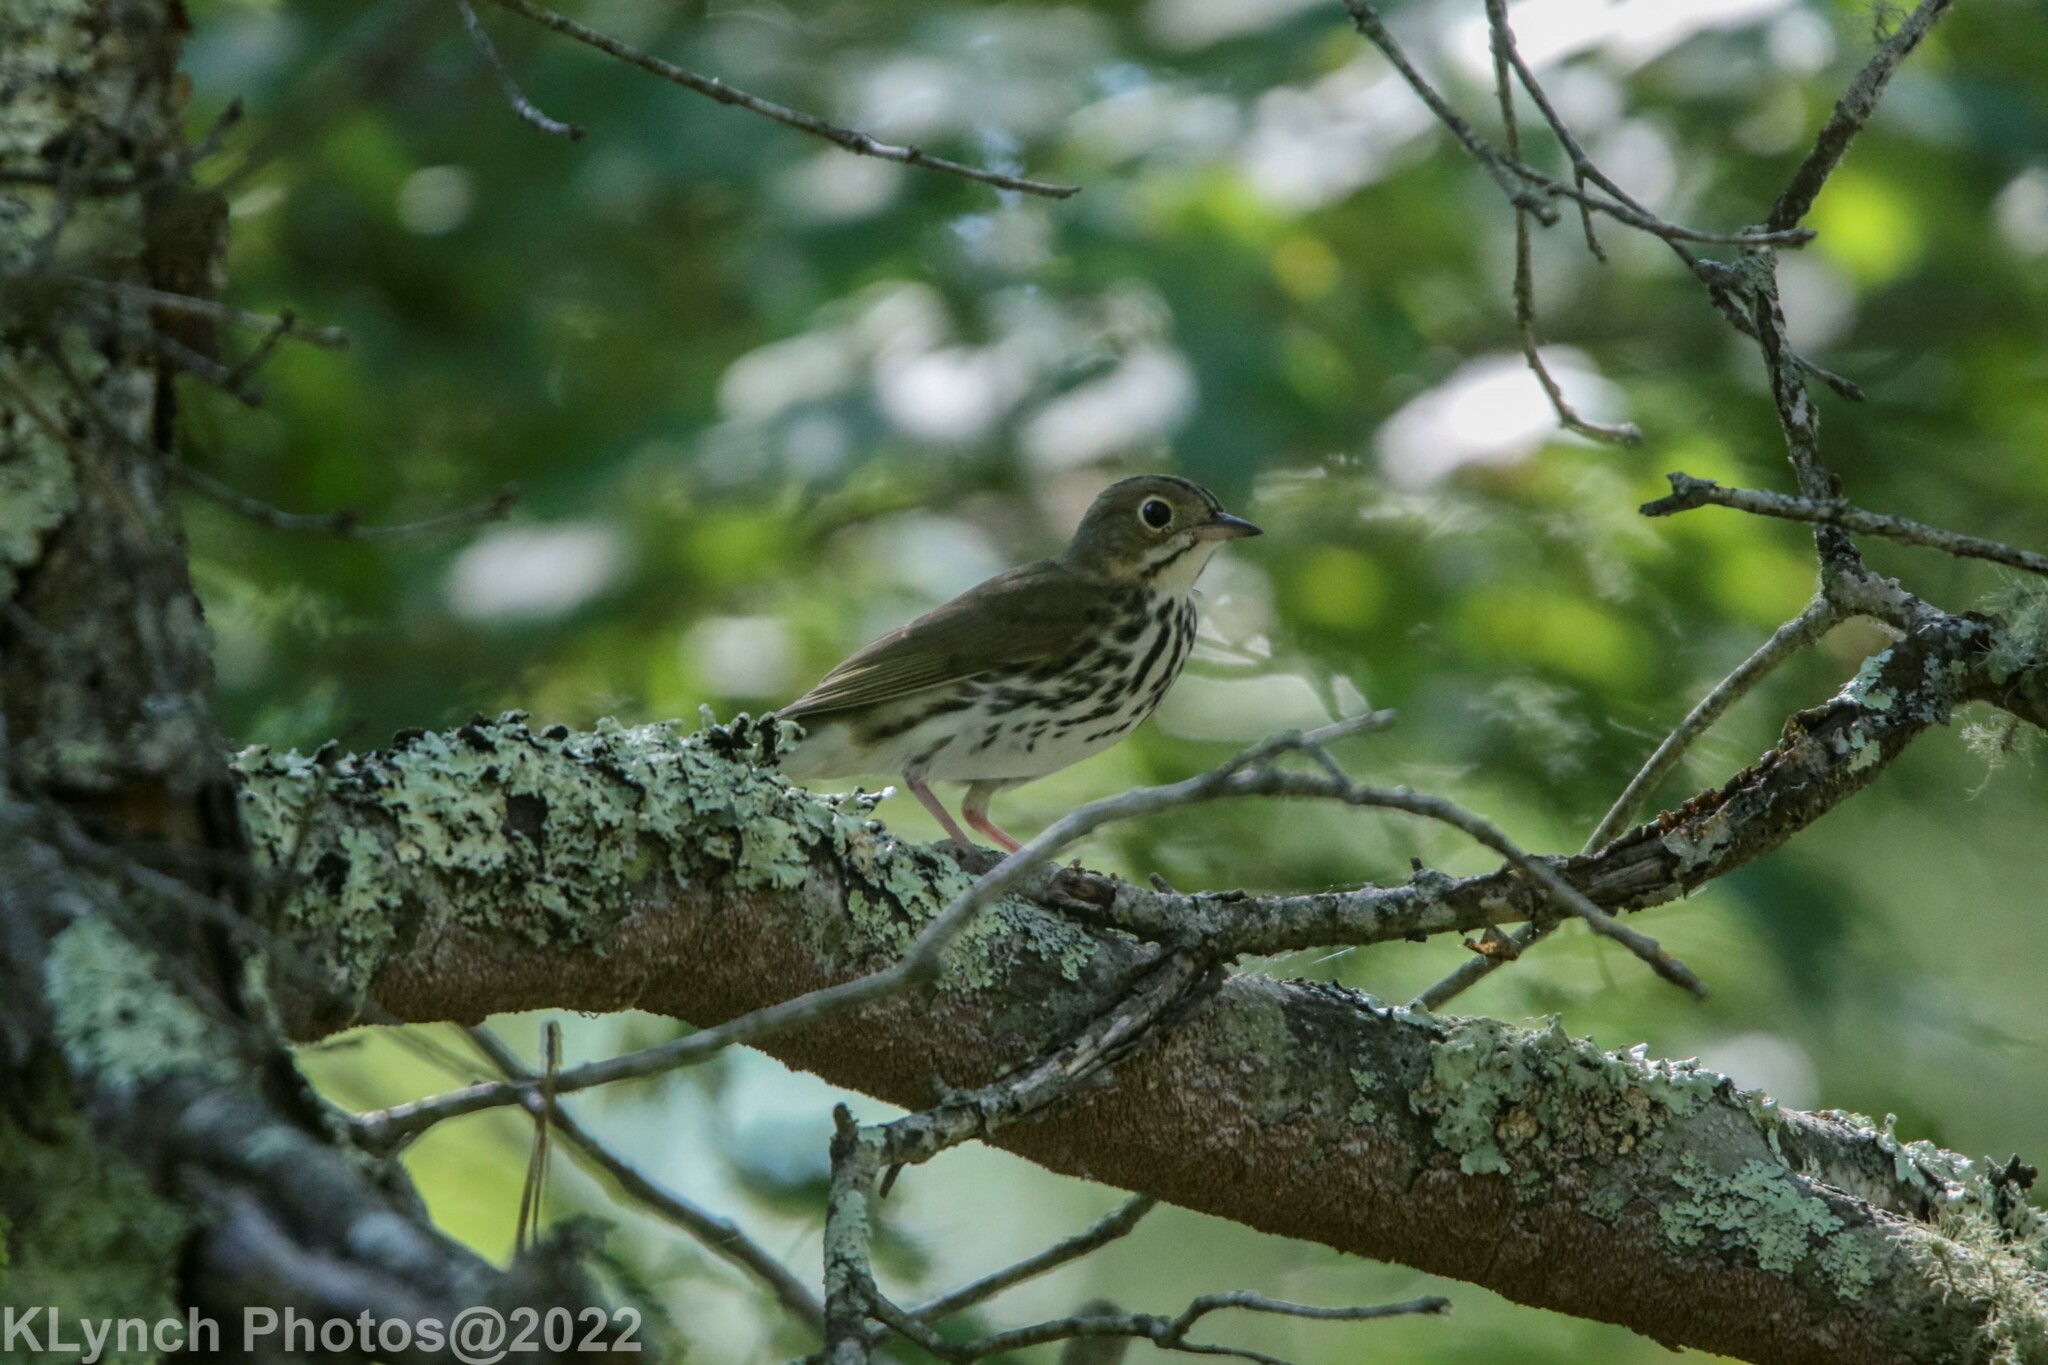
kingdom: Animalia
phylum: Chordata
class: Aves
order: Passeriformes
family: Parulidae
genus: Seiurus
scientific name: Seiurus aurocapilla
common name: Ovenbird
